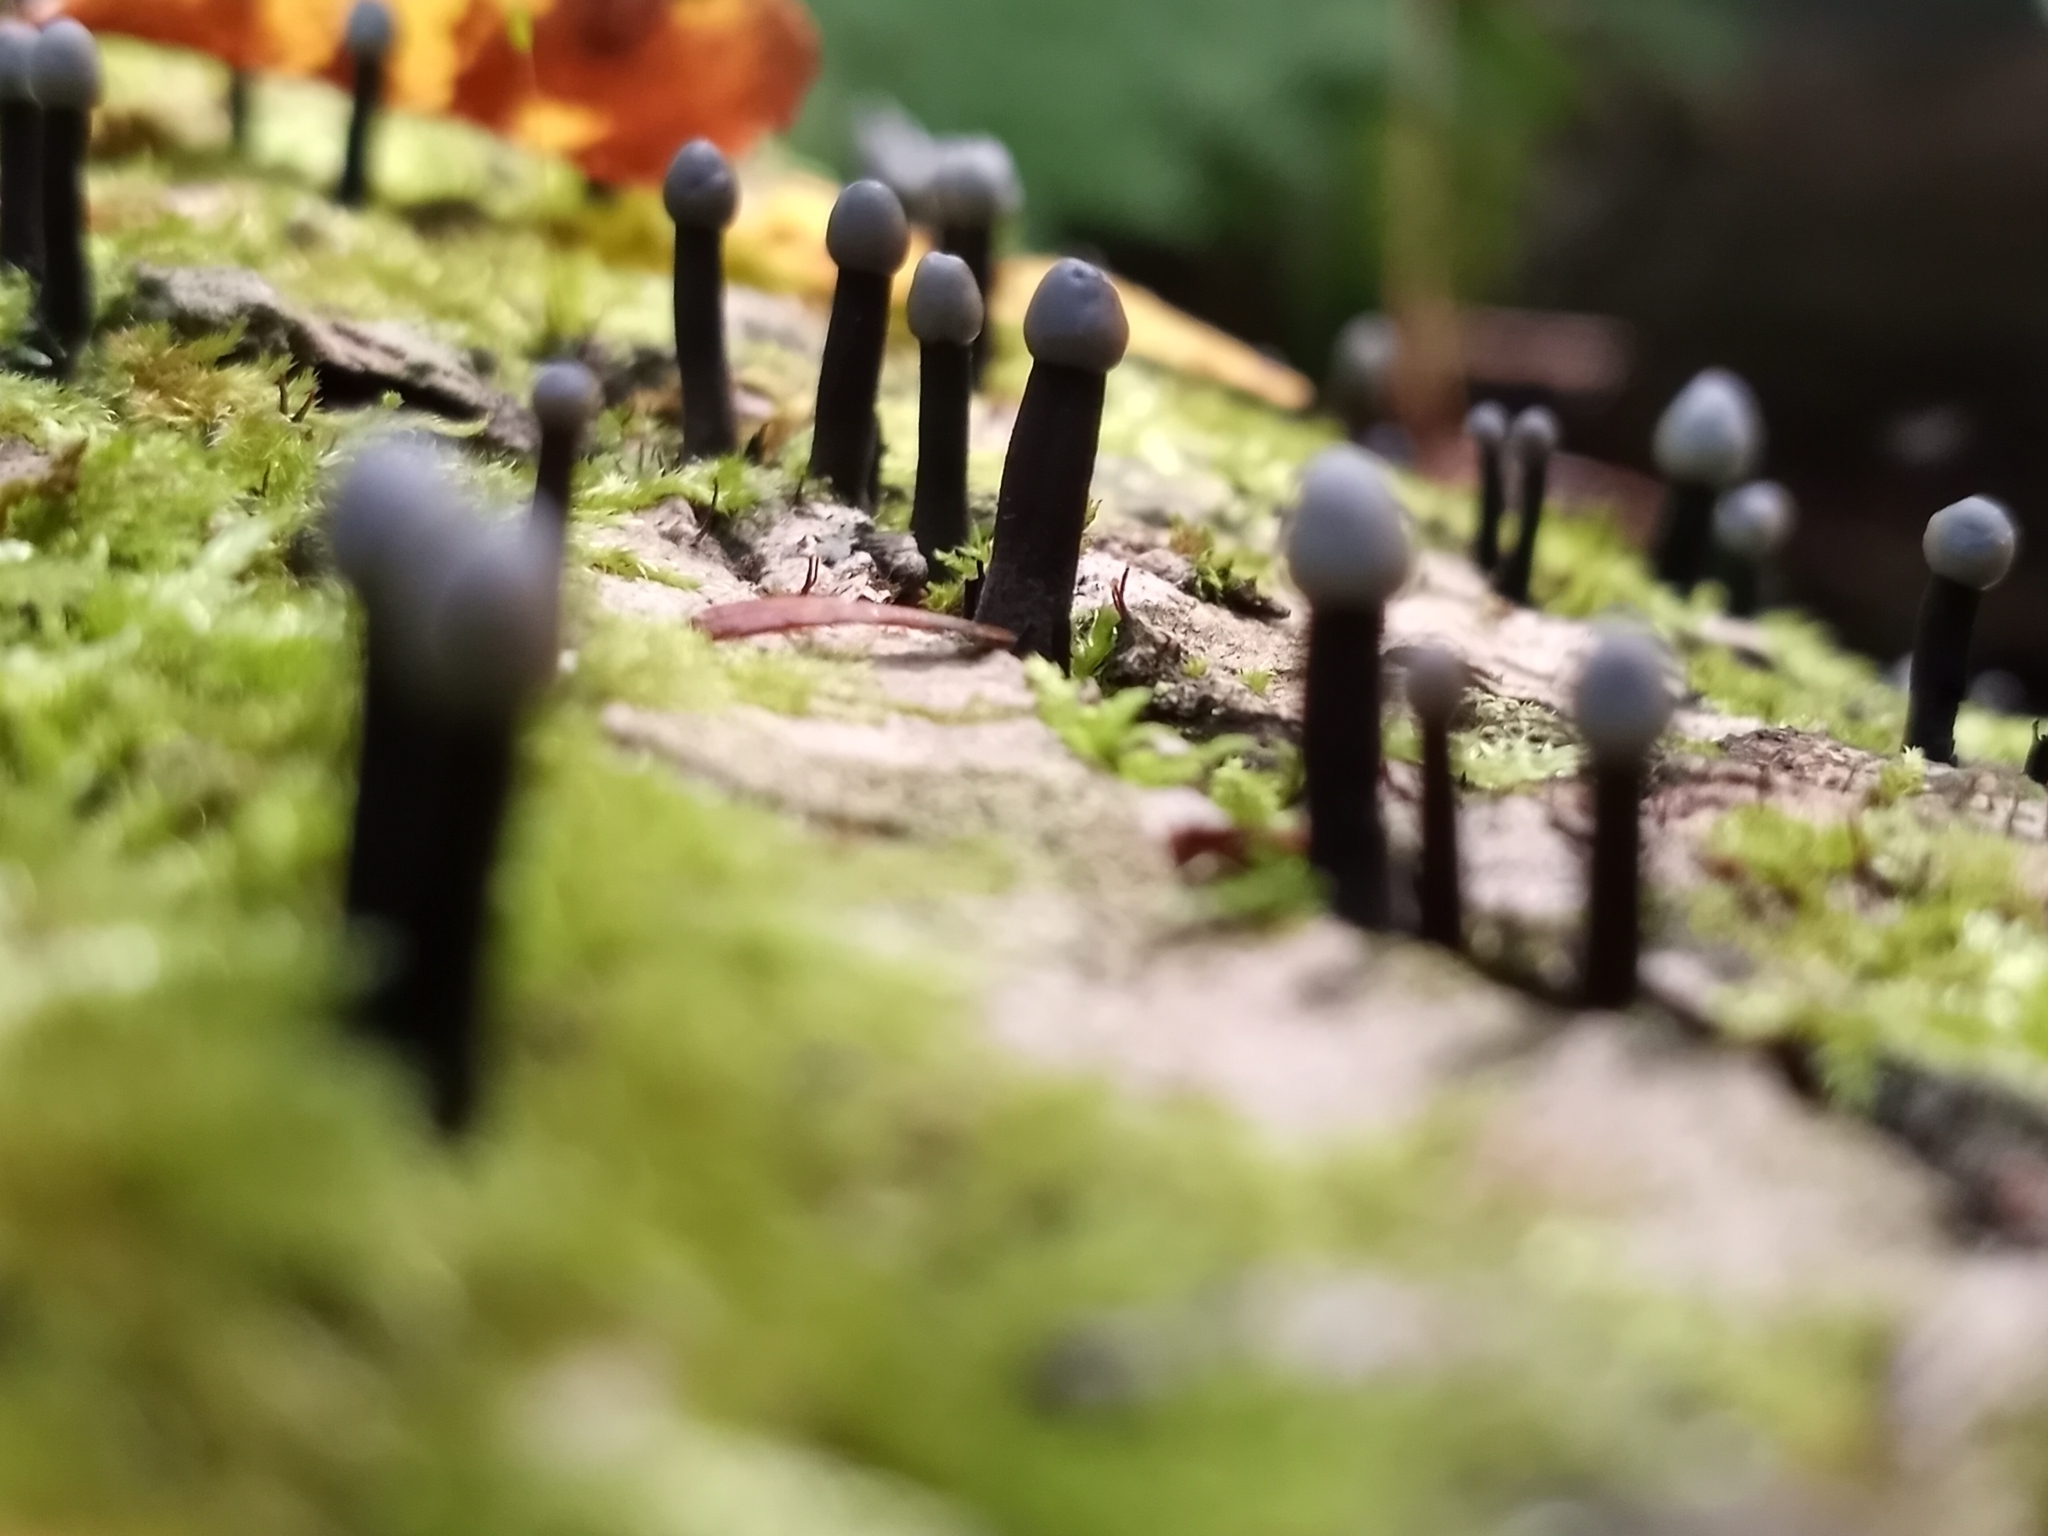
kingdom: Fungi
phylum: Ascomycota
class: Leotiomycetes
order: Helotiales
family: Bulgariaceae
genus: Holwaya
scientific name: Holwaya mucida
